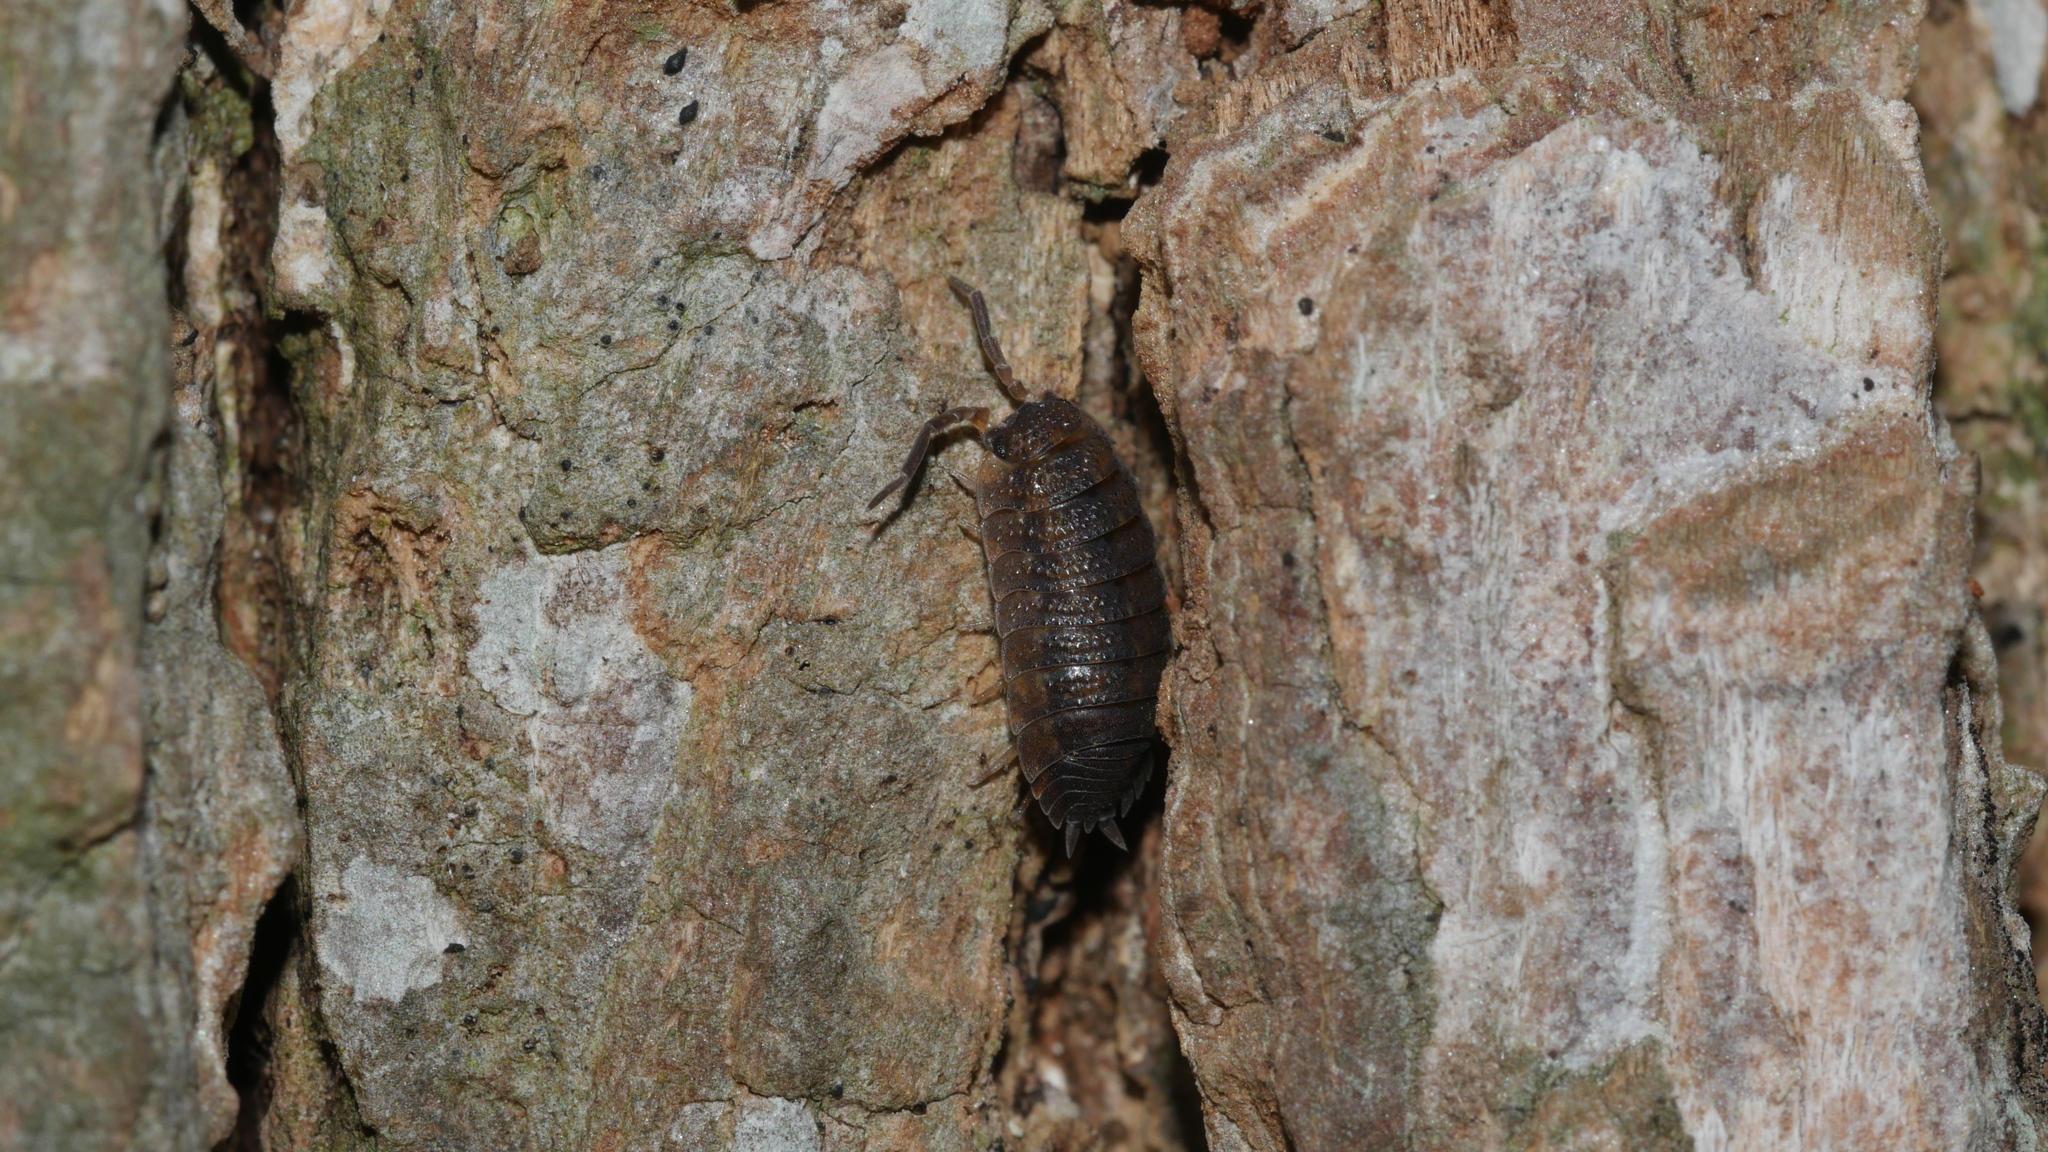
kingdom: Animalia
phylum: Arthropoda
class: Malacostraca
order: Isopoda
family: Porcellionidae
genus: Porcellio
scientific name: Porcellio scaber
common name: Common rough woodlouse
